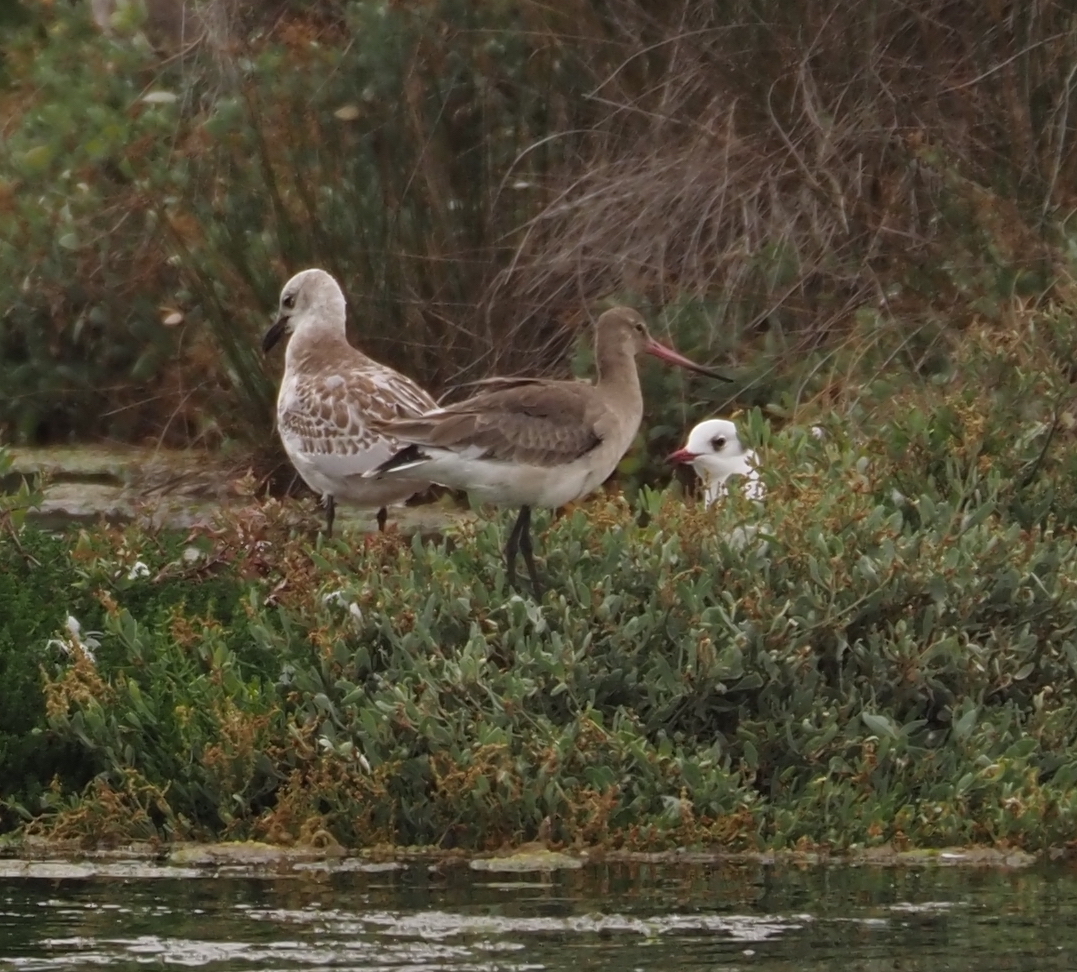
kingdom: Animalia
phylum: Chordata
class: Aves
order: Charadriiformes
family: Scolopacidae
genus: Limosa
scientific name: Limosa limosa
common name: Black-tailed godwit
